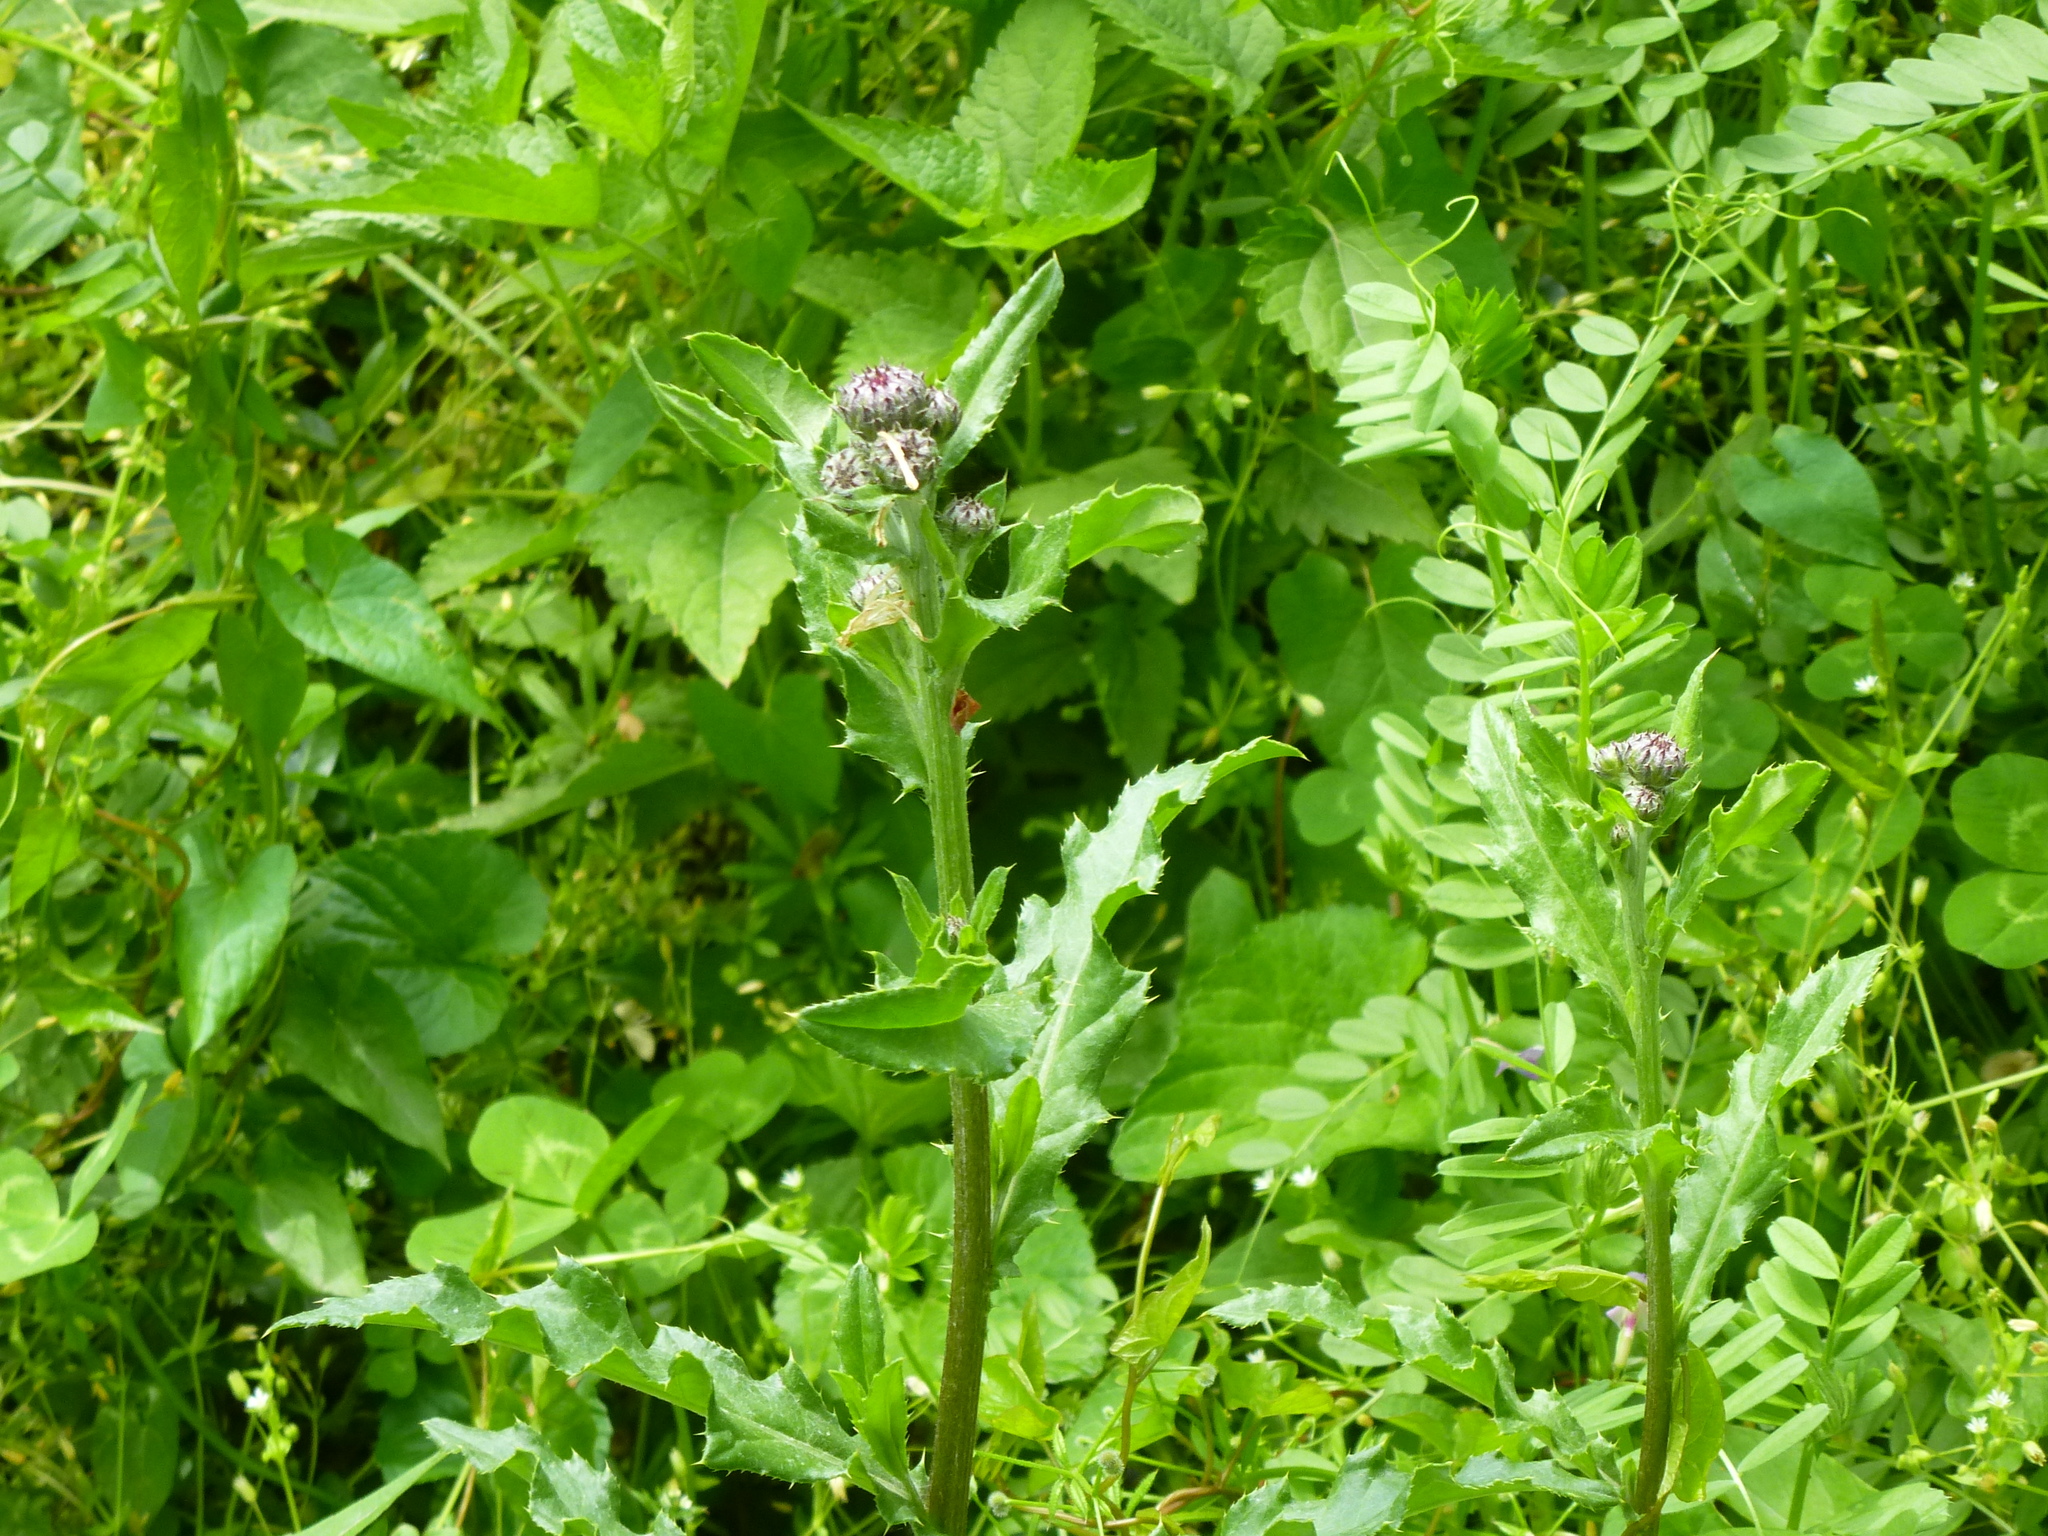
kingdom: Plantae
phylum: Tracheophyta
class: Magnoliopsida
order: Asterales
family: Asteraceae
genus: Cirsium
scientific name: Cirsium arvense
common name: Creeping thistle
